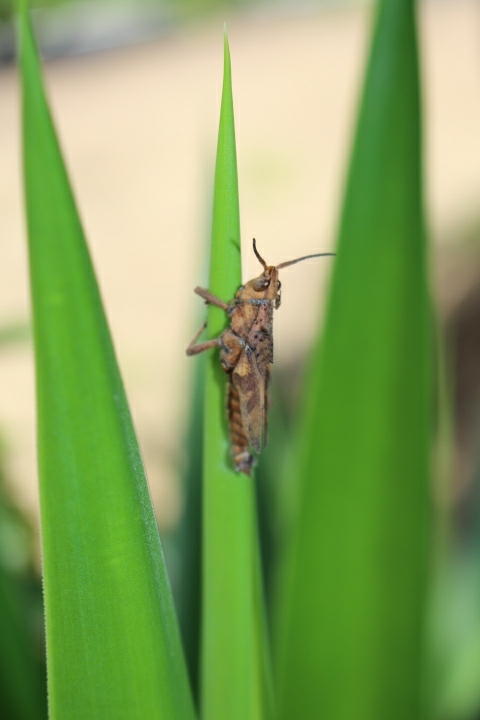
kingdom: Animalia
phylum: Arthropoda
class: Insecta
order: Orthoptera
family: Romaleidae
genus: Colpolopha
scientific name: Colpolopha bruneri
